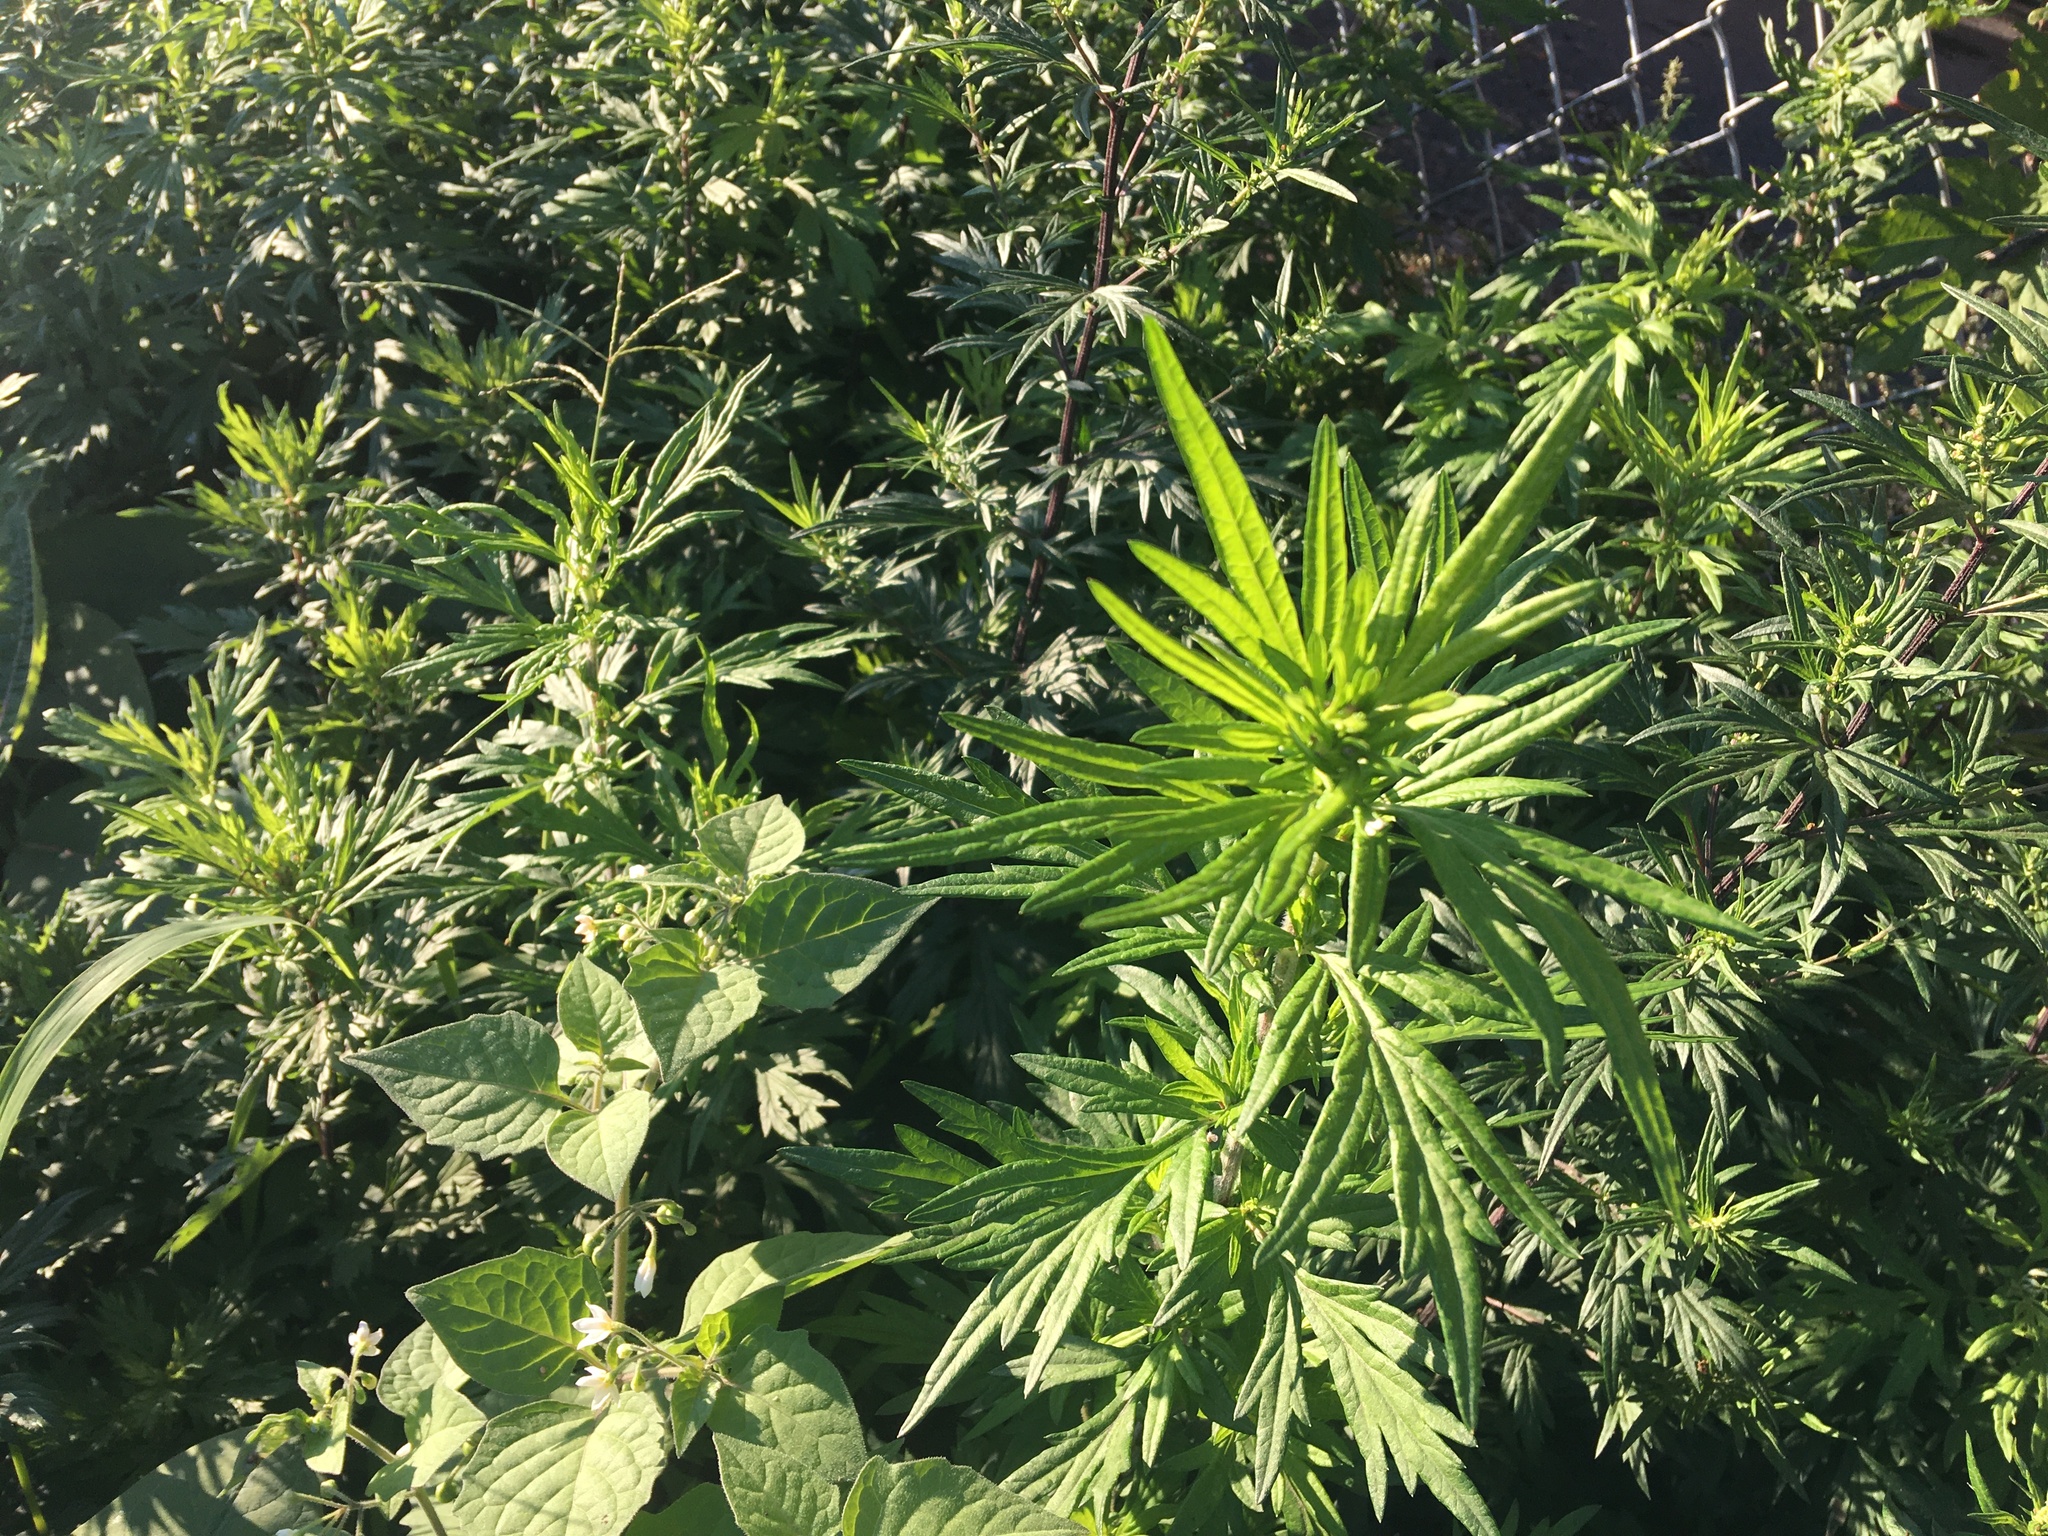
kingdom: Plantae
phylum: Tracheophyta
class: Magnoliopsida
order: Asterales
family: Asteraceae
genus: Artemisia
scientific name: Artemisia vulgaris
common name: Mugwort
